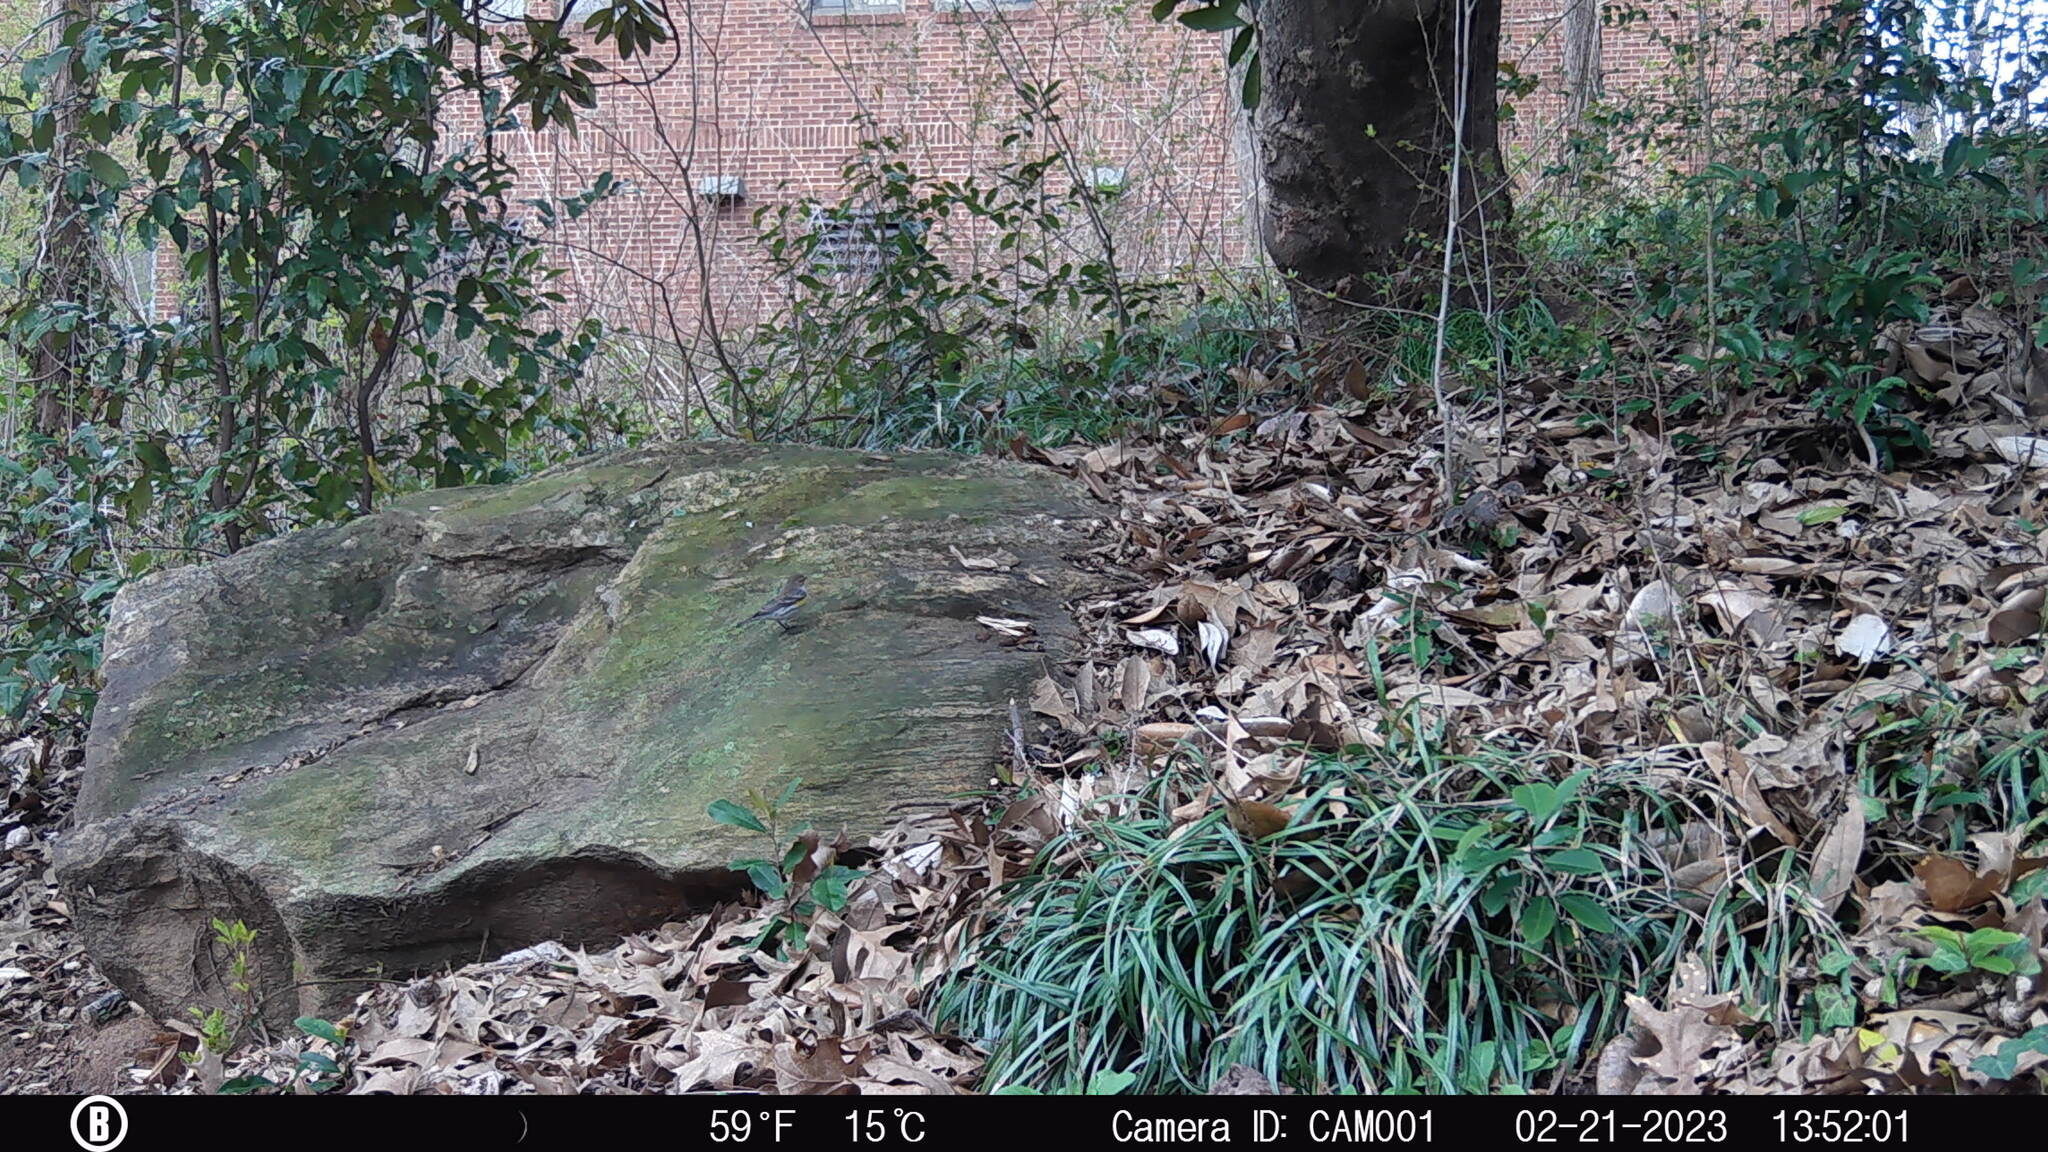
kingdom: Animalia
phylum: Chordata
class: Aves
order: Passeriformes
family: Parulidae
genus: Setophaga
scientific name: Setophaga coronata
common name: Myrtle warbler
